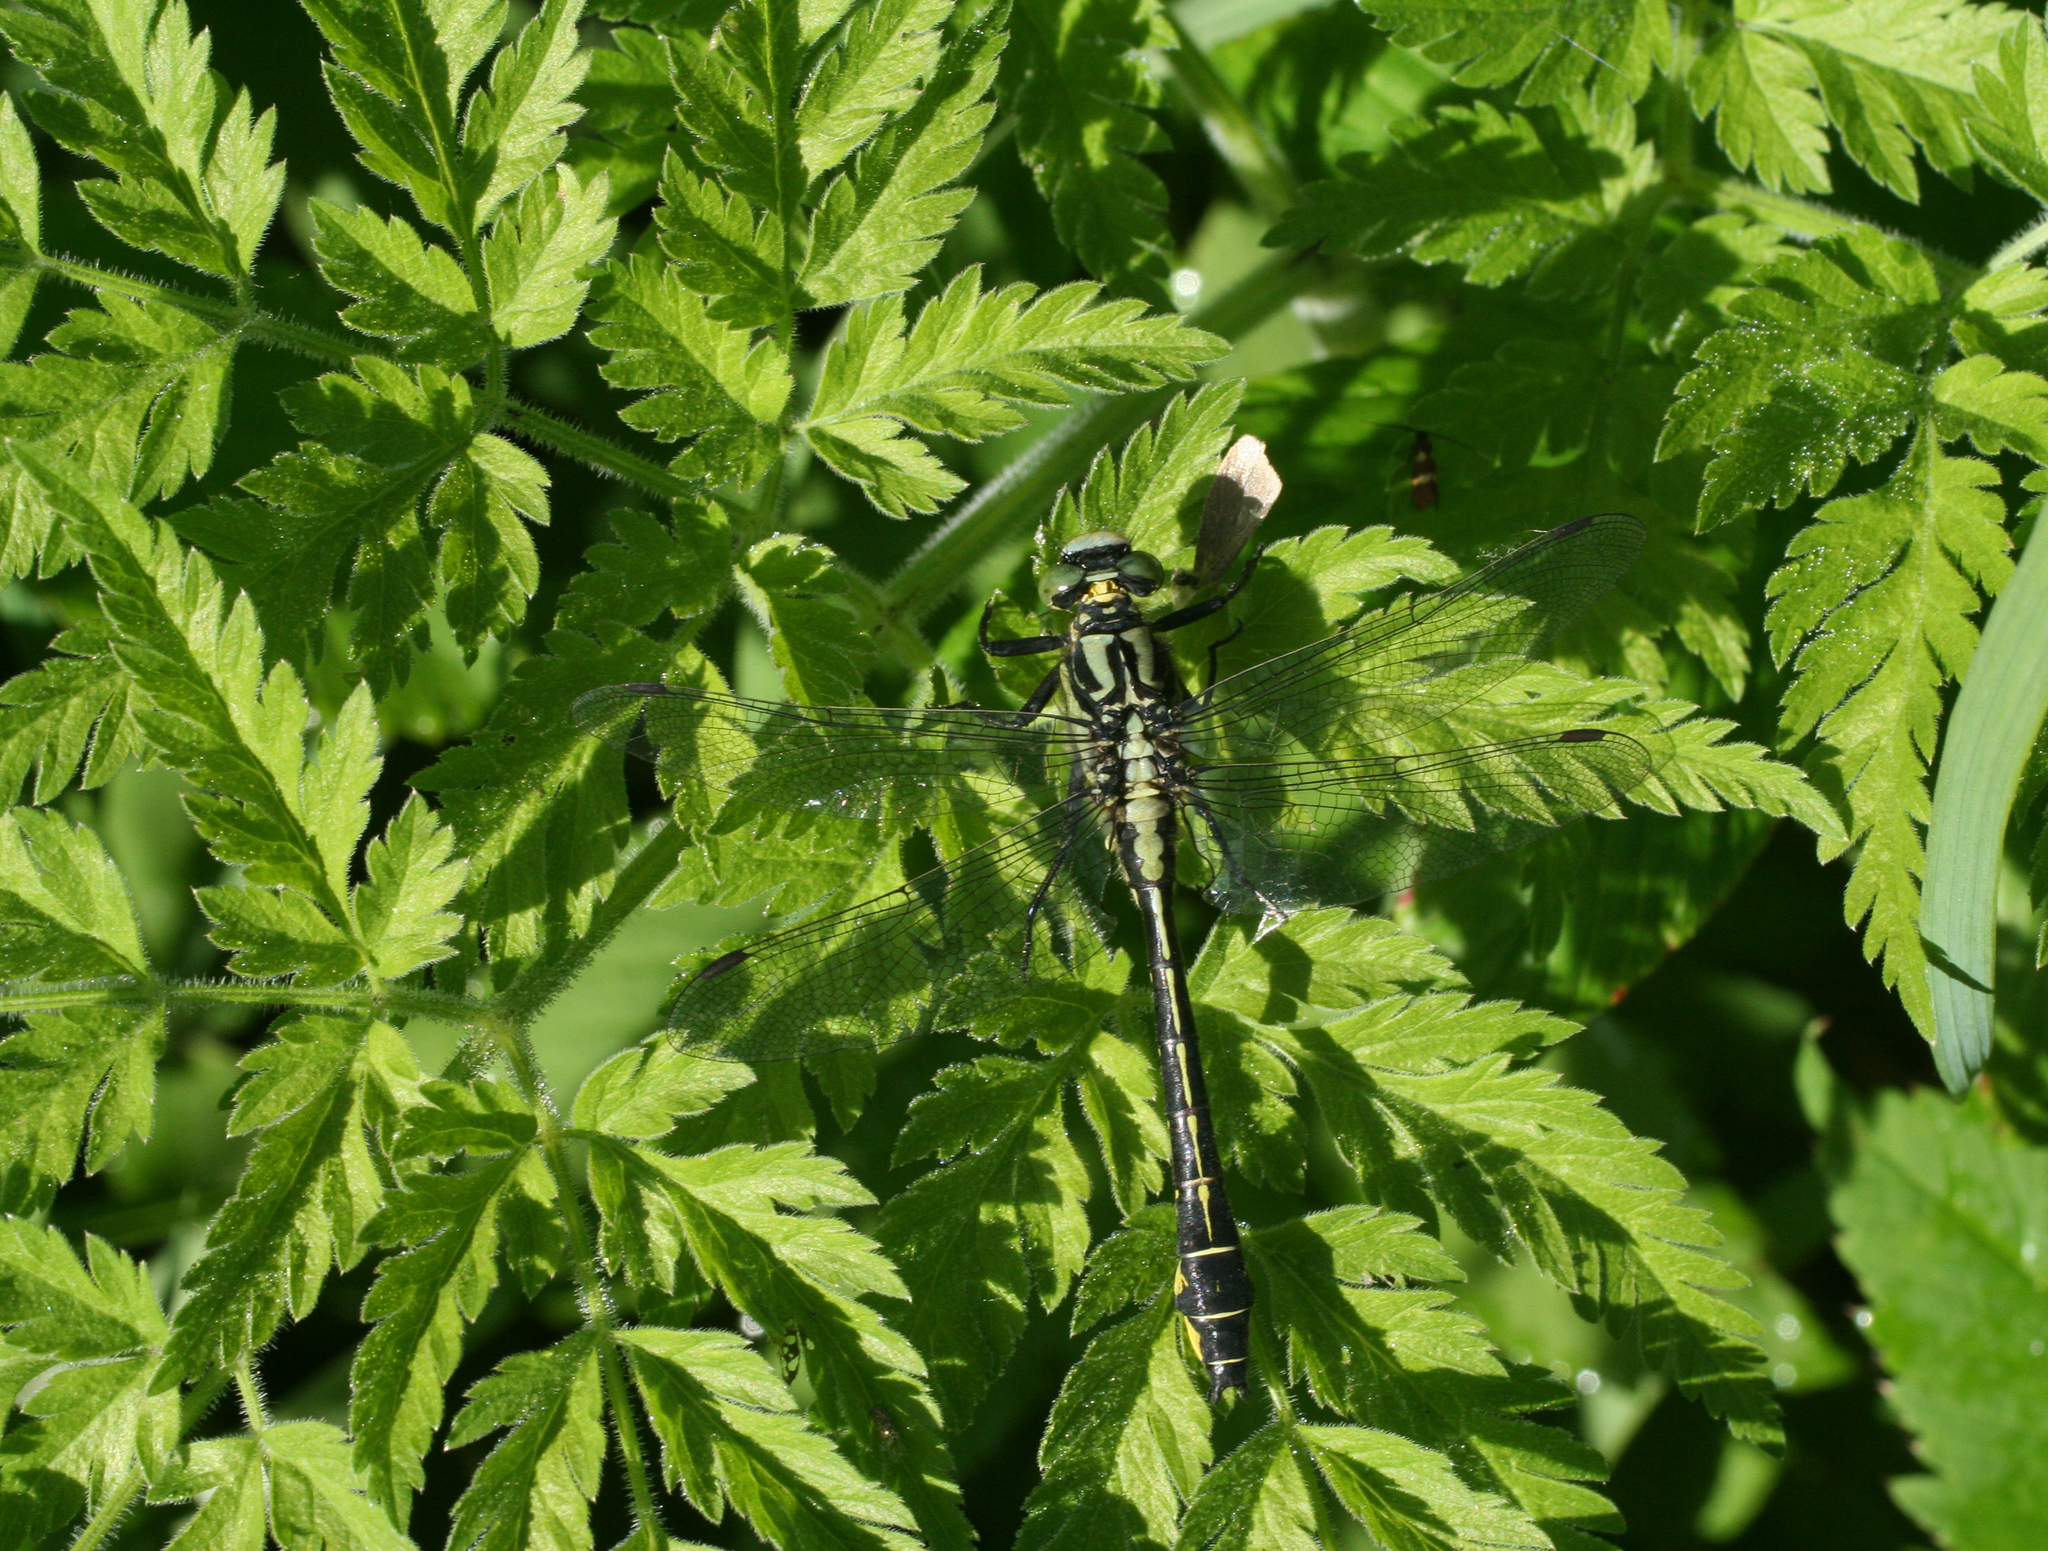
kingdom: Animalia
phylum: Arthropoda
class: Insecta
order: Odonata
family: Gomphidae
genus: Gomphus
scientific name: Gomphus vulgatissimus
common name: Club-tailed dragonfly
